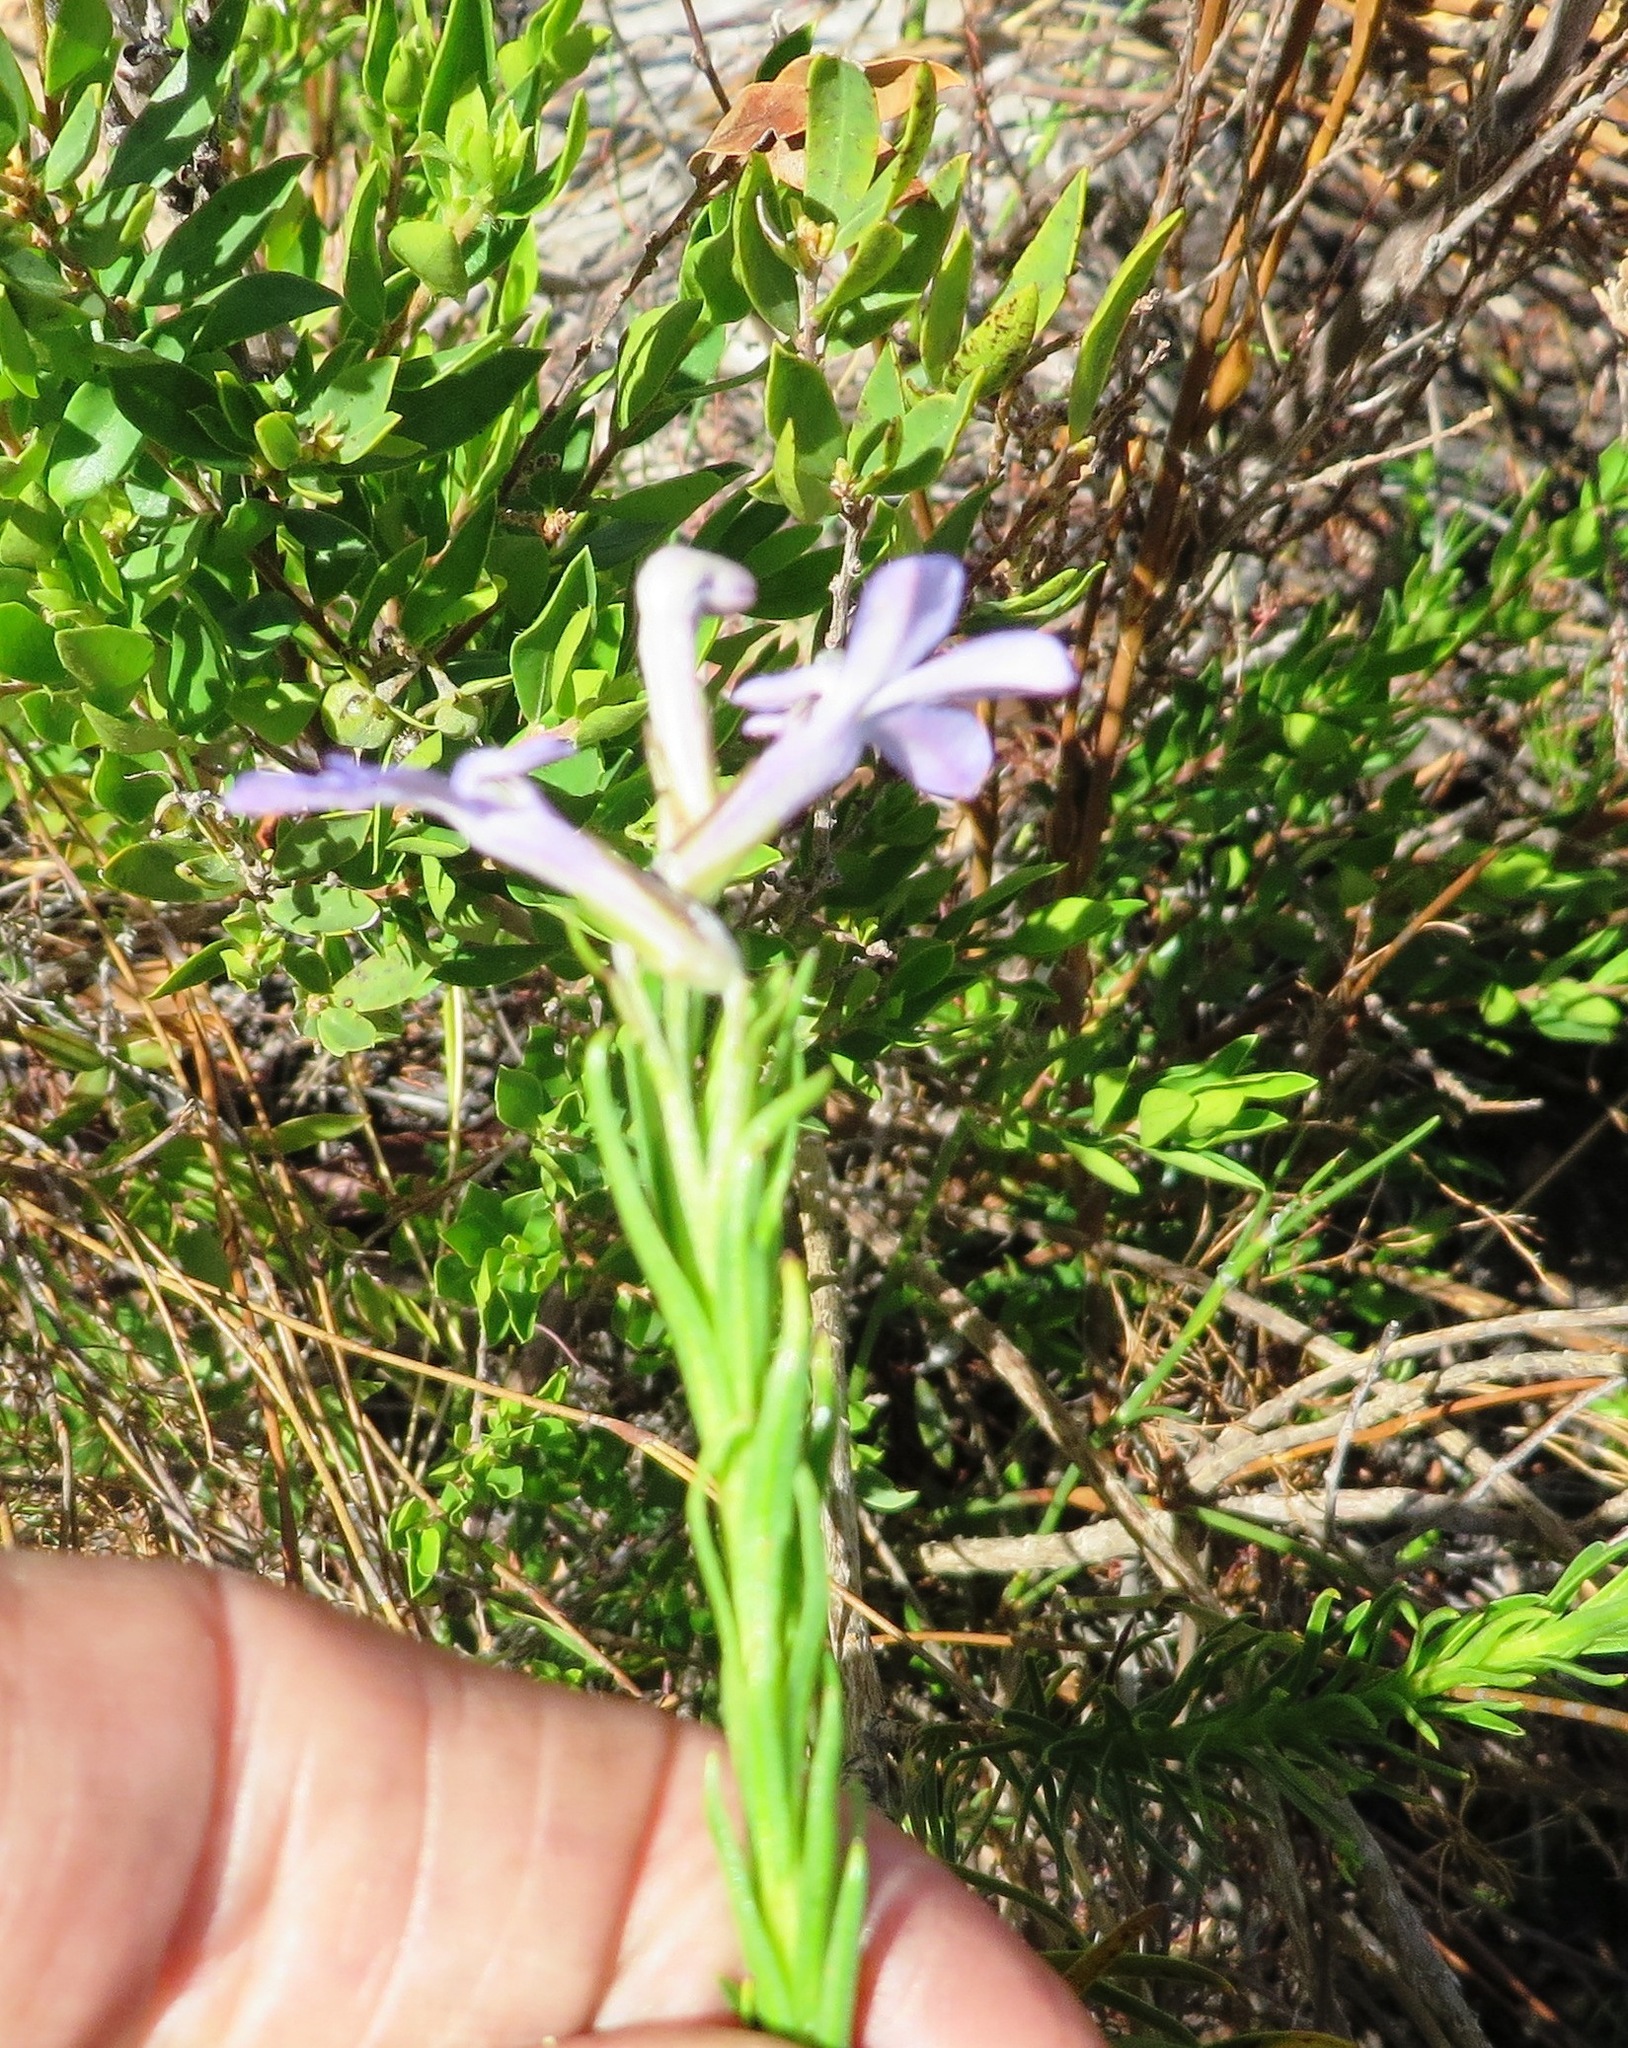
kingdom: Plantae
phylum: Tracheophyta
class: Magnoliopsida
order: Asterales
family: Campanulaceae
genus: Lobelia
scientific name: Lobelia pinifolia
